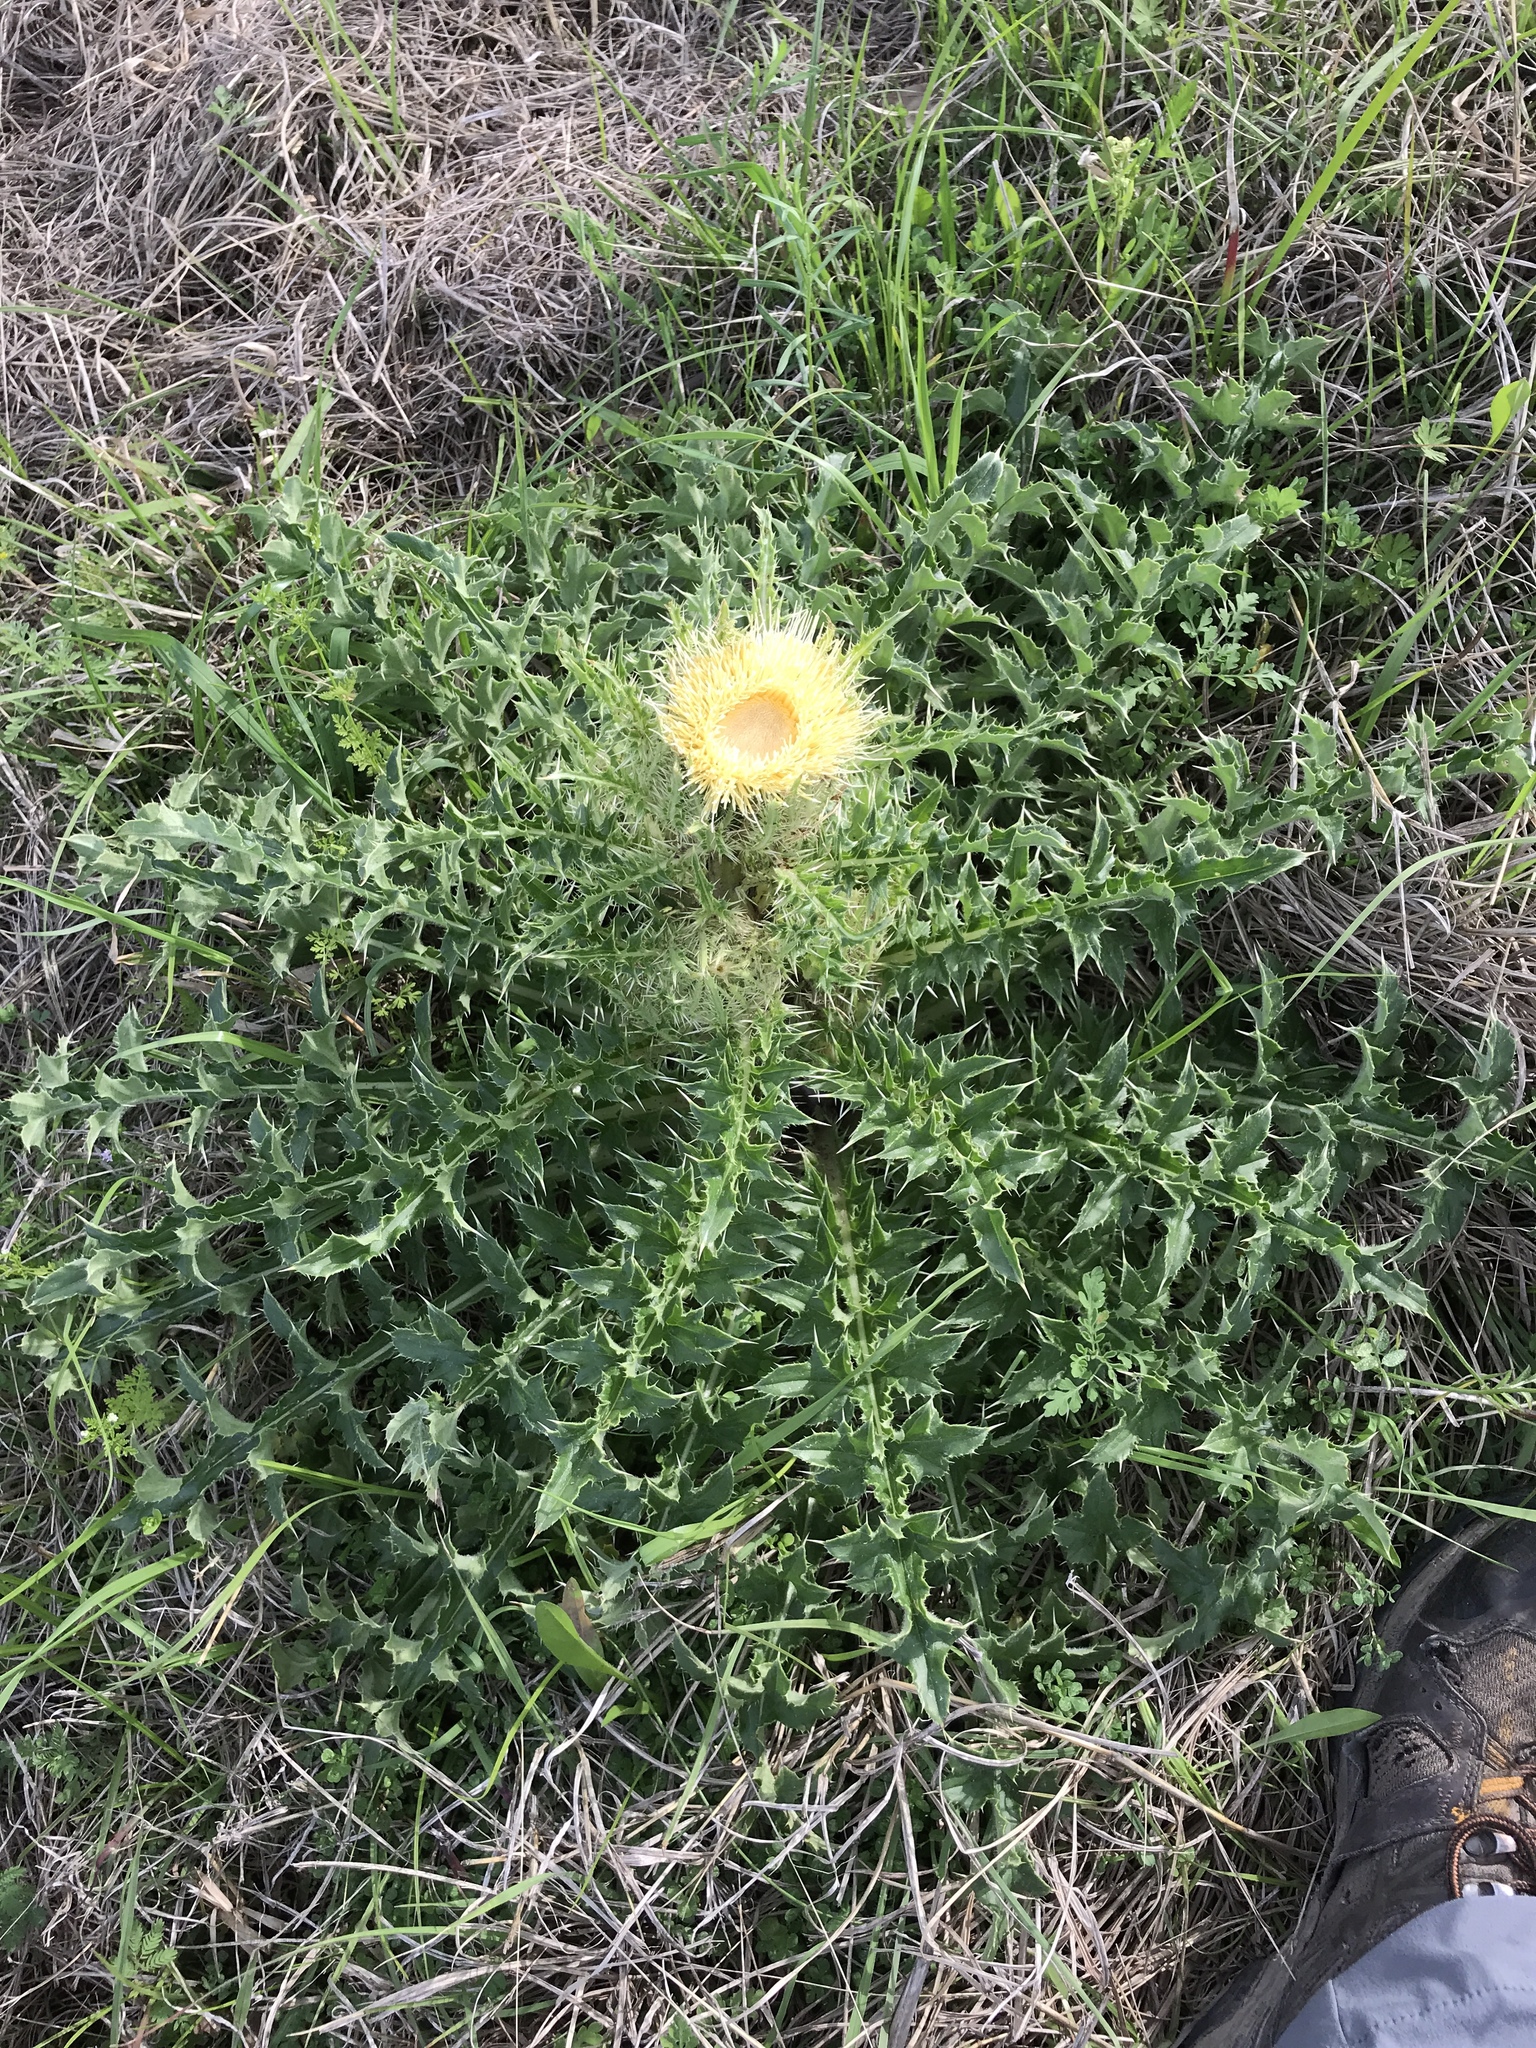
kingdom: Plantae
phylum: Tracheophyta
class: Magnoliopsida
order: Asterales
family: Asteraceae
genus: Cirsium
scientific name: Cirsium horridulum
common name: Bristly thistle
